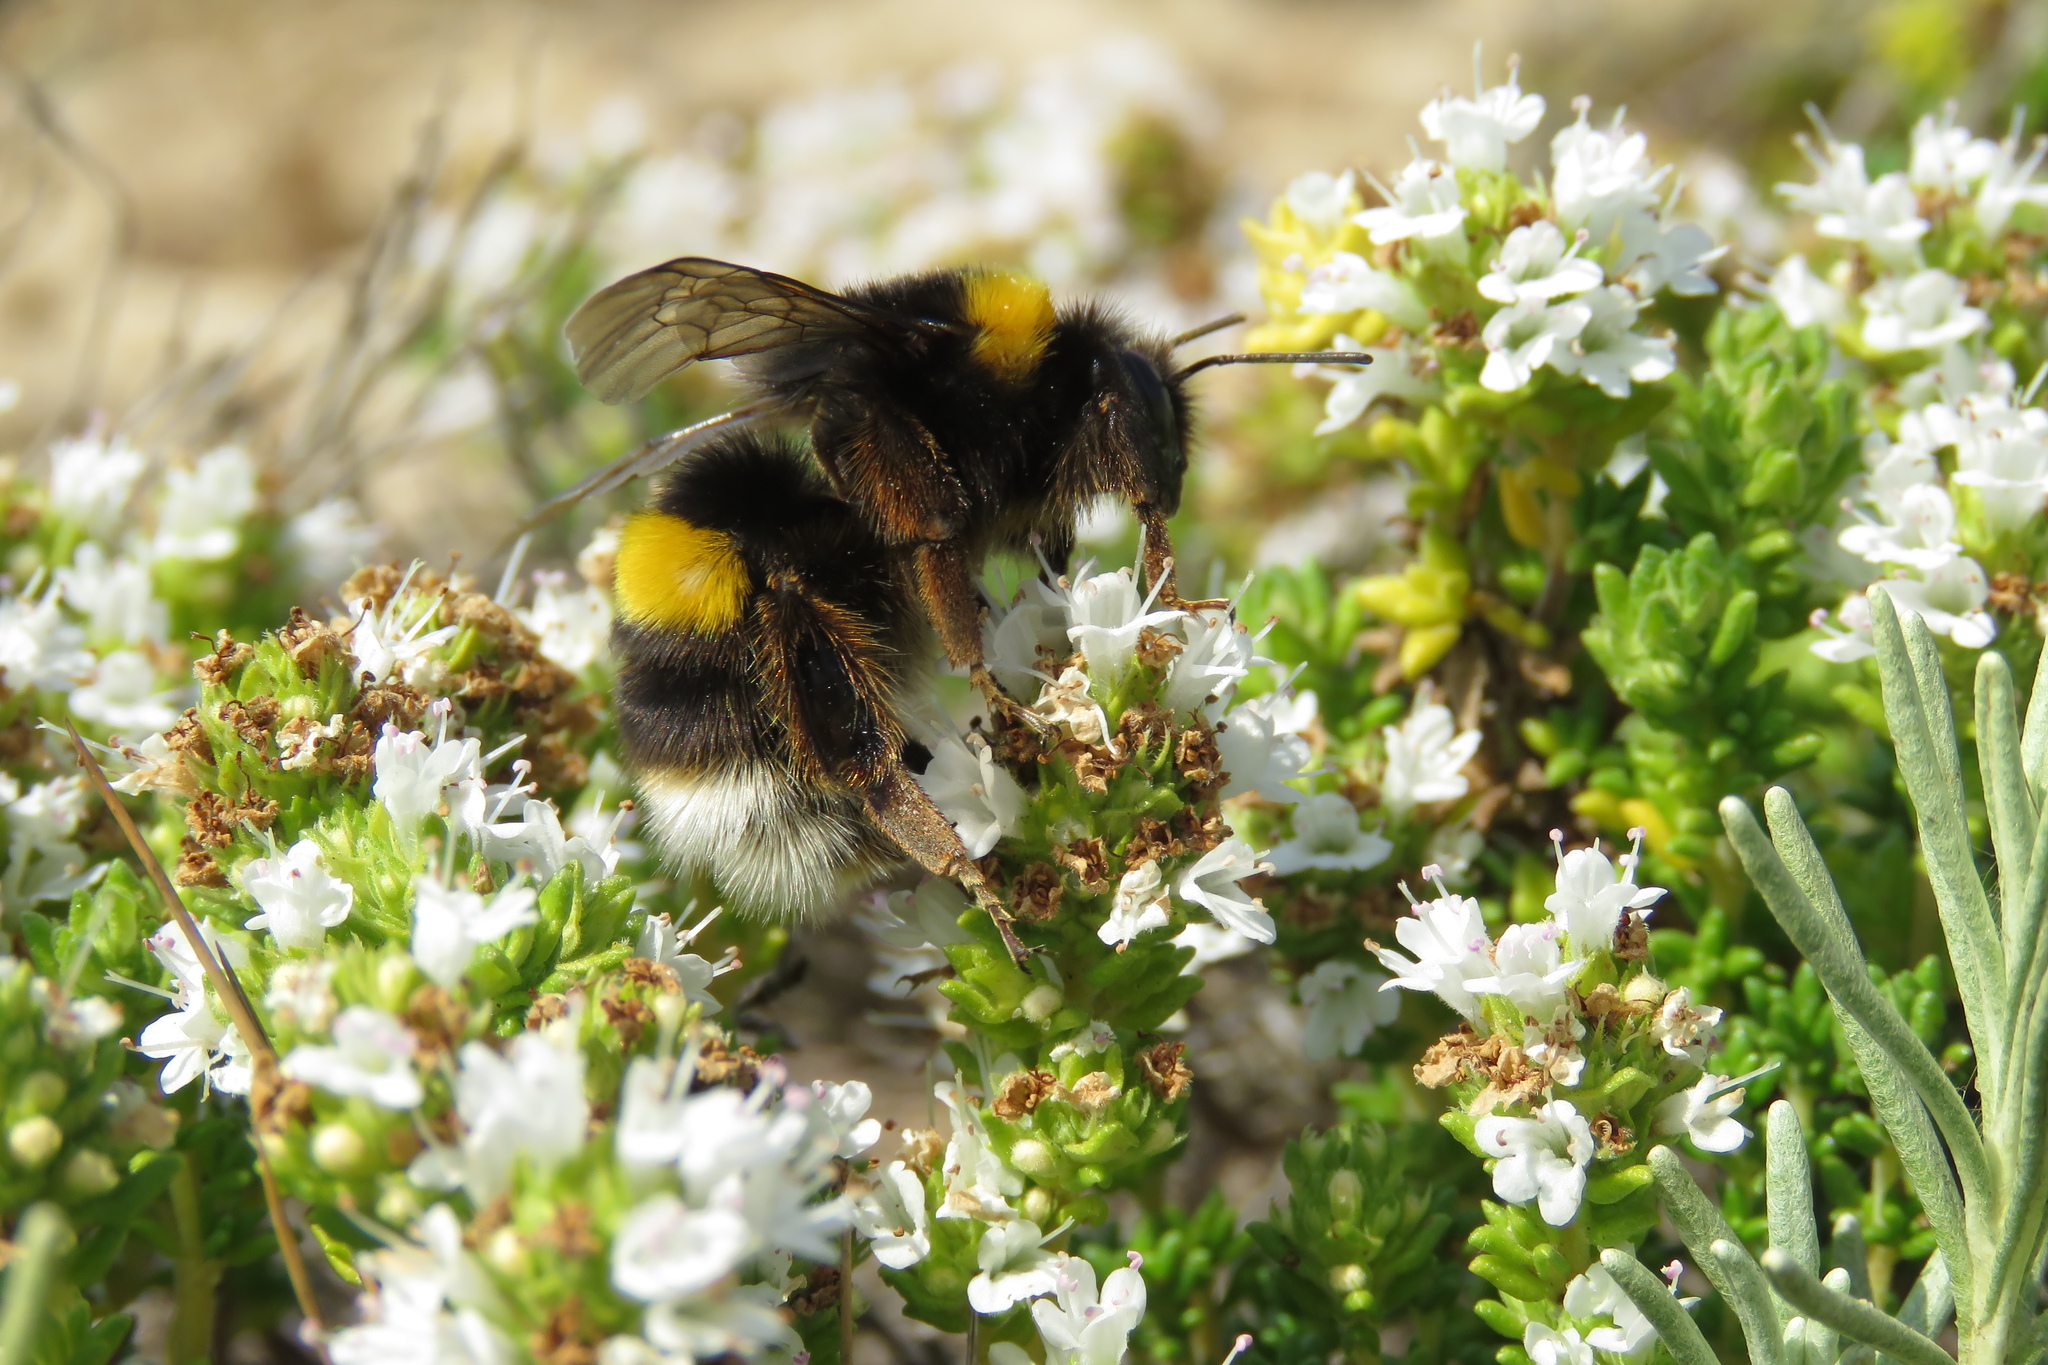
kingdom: Animalia
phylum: Arthropoda
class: Insecta
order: Hymenoptera
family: Apidae
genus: Bombus
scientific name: Bombus terrestris
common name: Buff-tailed bumblebee
